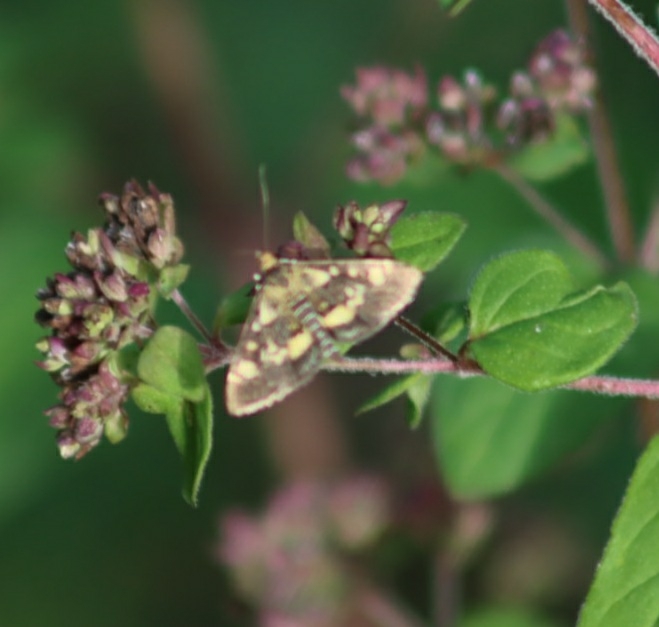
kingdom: Animalia
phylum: Arthropoda
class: Insecta
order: Lepidoptera
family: Crambidae
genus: Pyrausta
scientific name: Pyrausta aurata
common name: Small purple & gold
